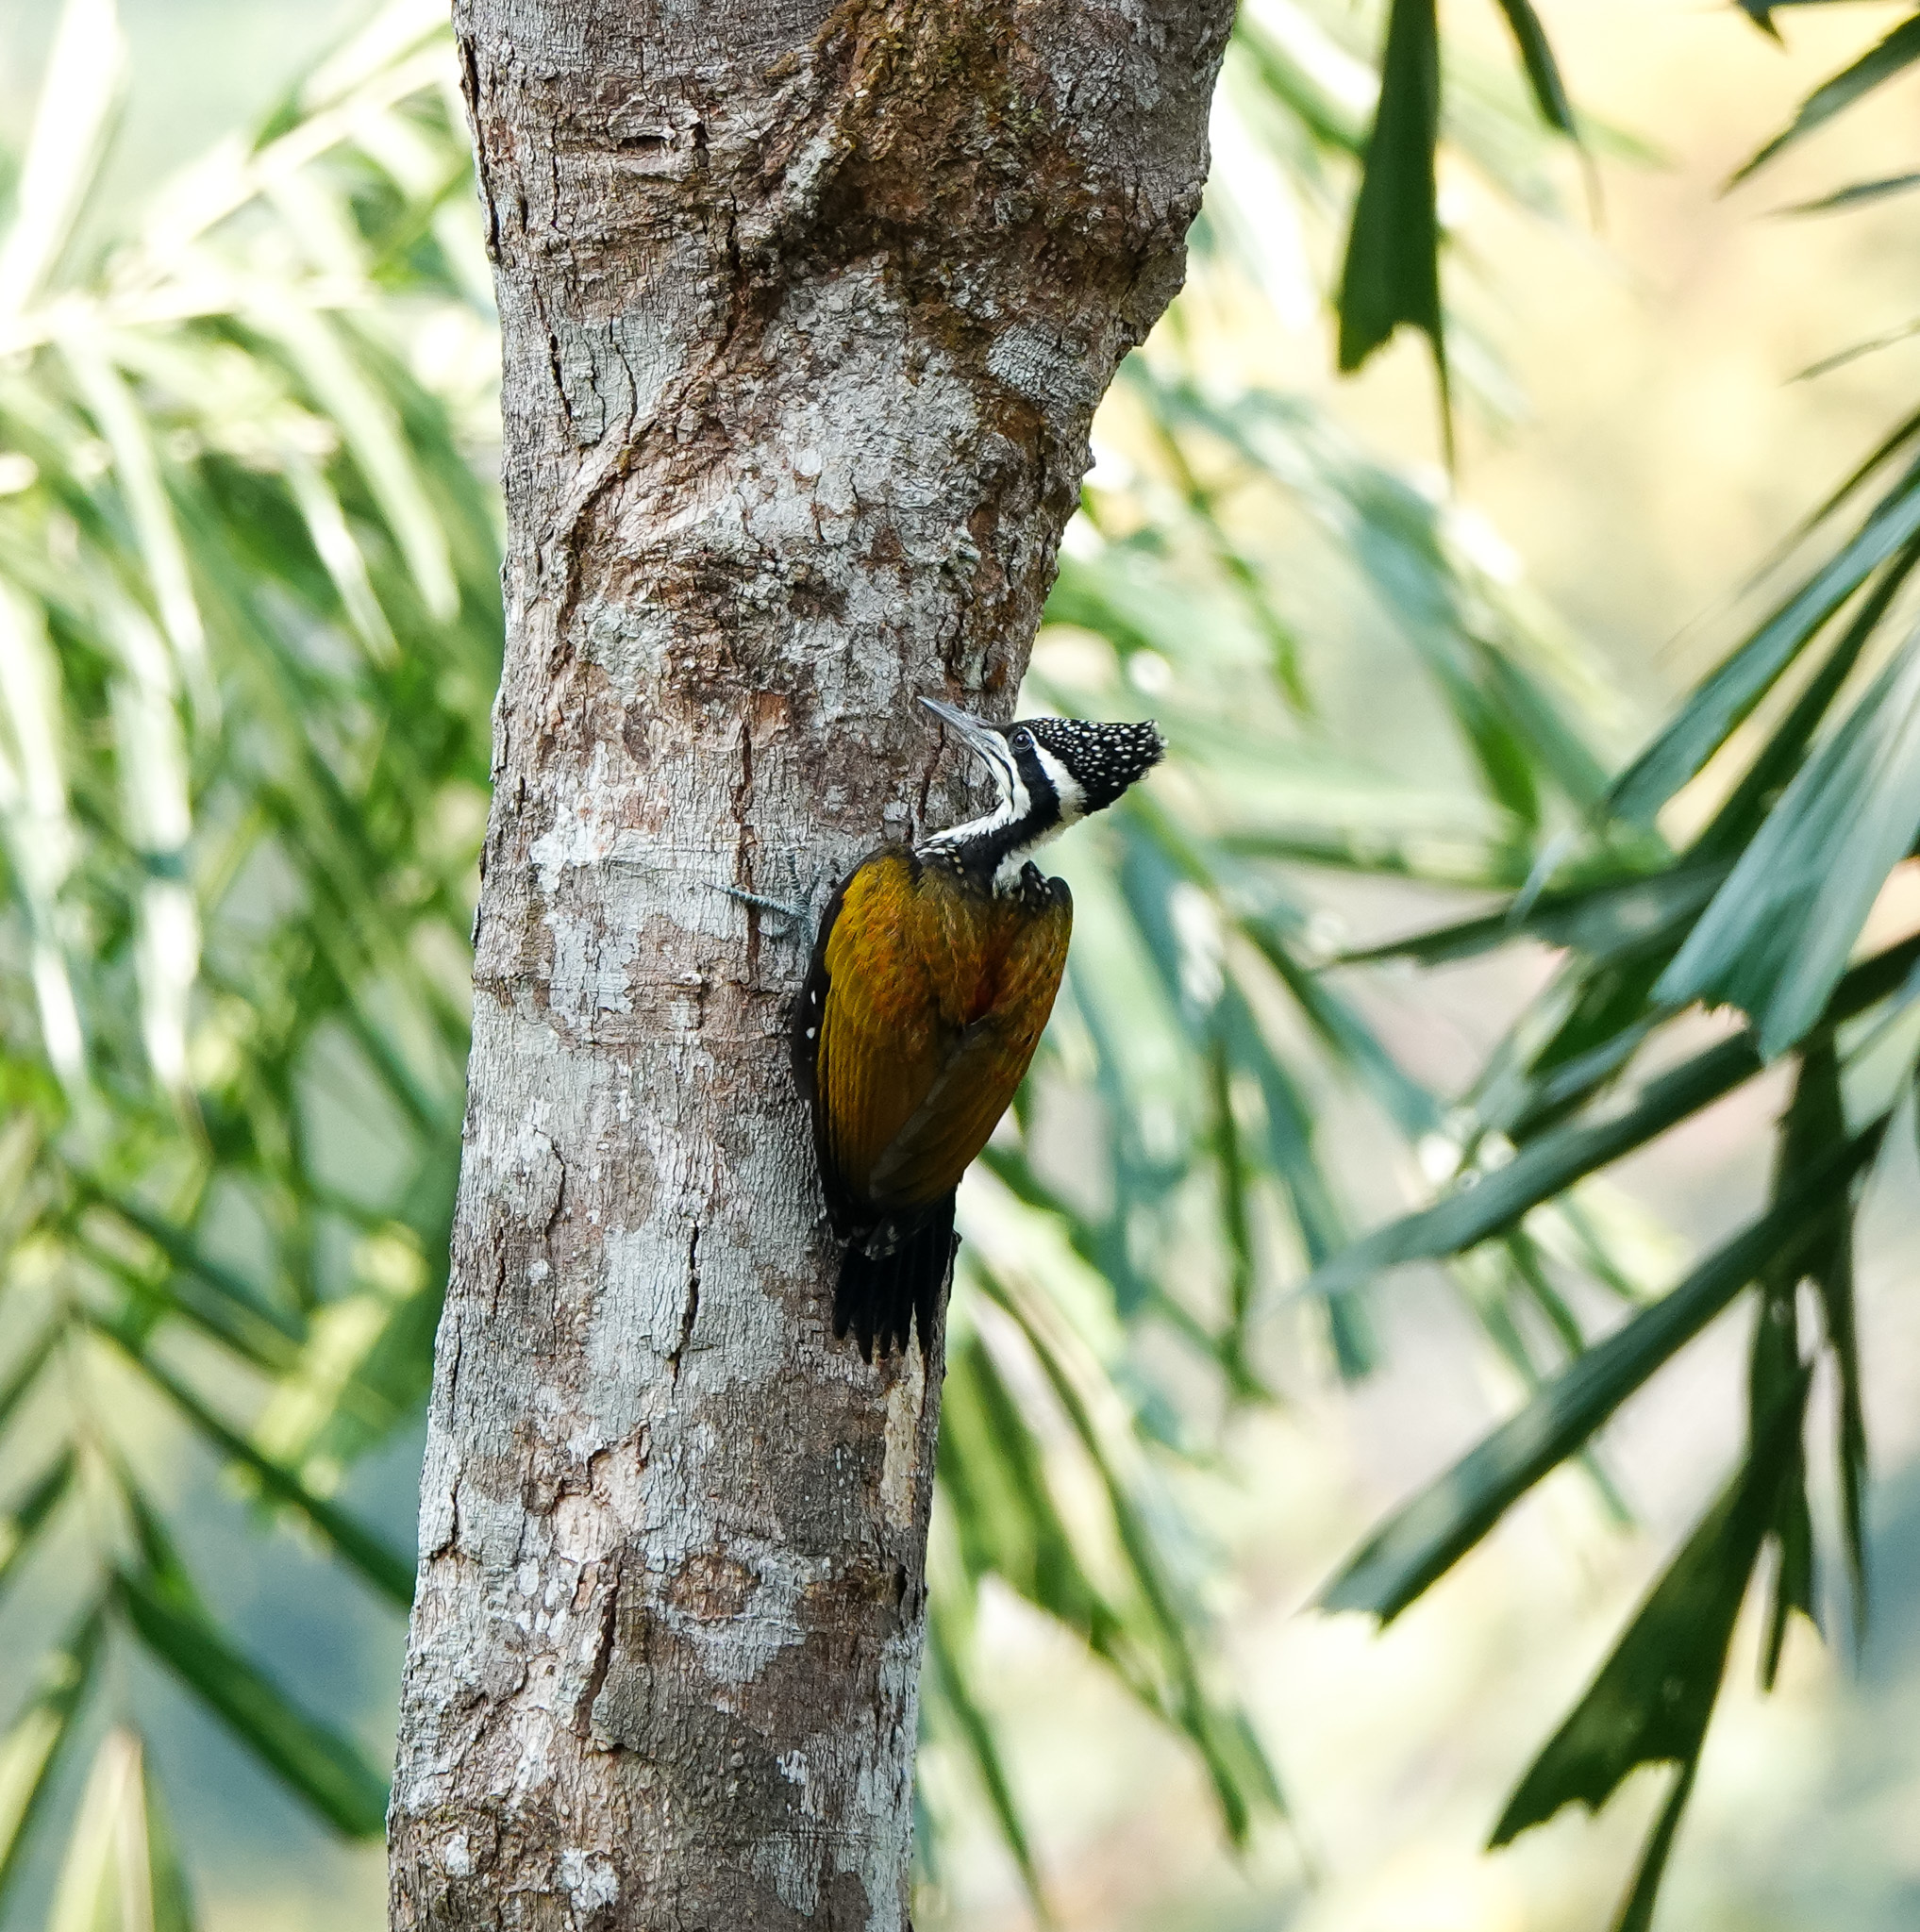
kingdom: Animalia
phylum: Chordata
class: Aves
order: Piciformes
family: Picidae
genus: Chrysocolaptes
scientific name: Chrysocolaptes guttacristatus
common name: Greater flameback
